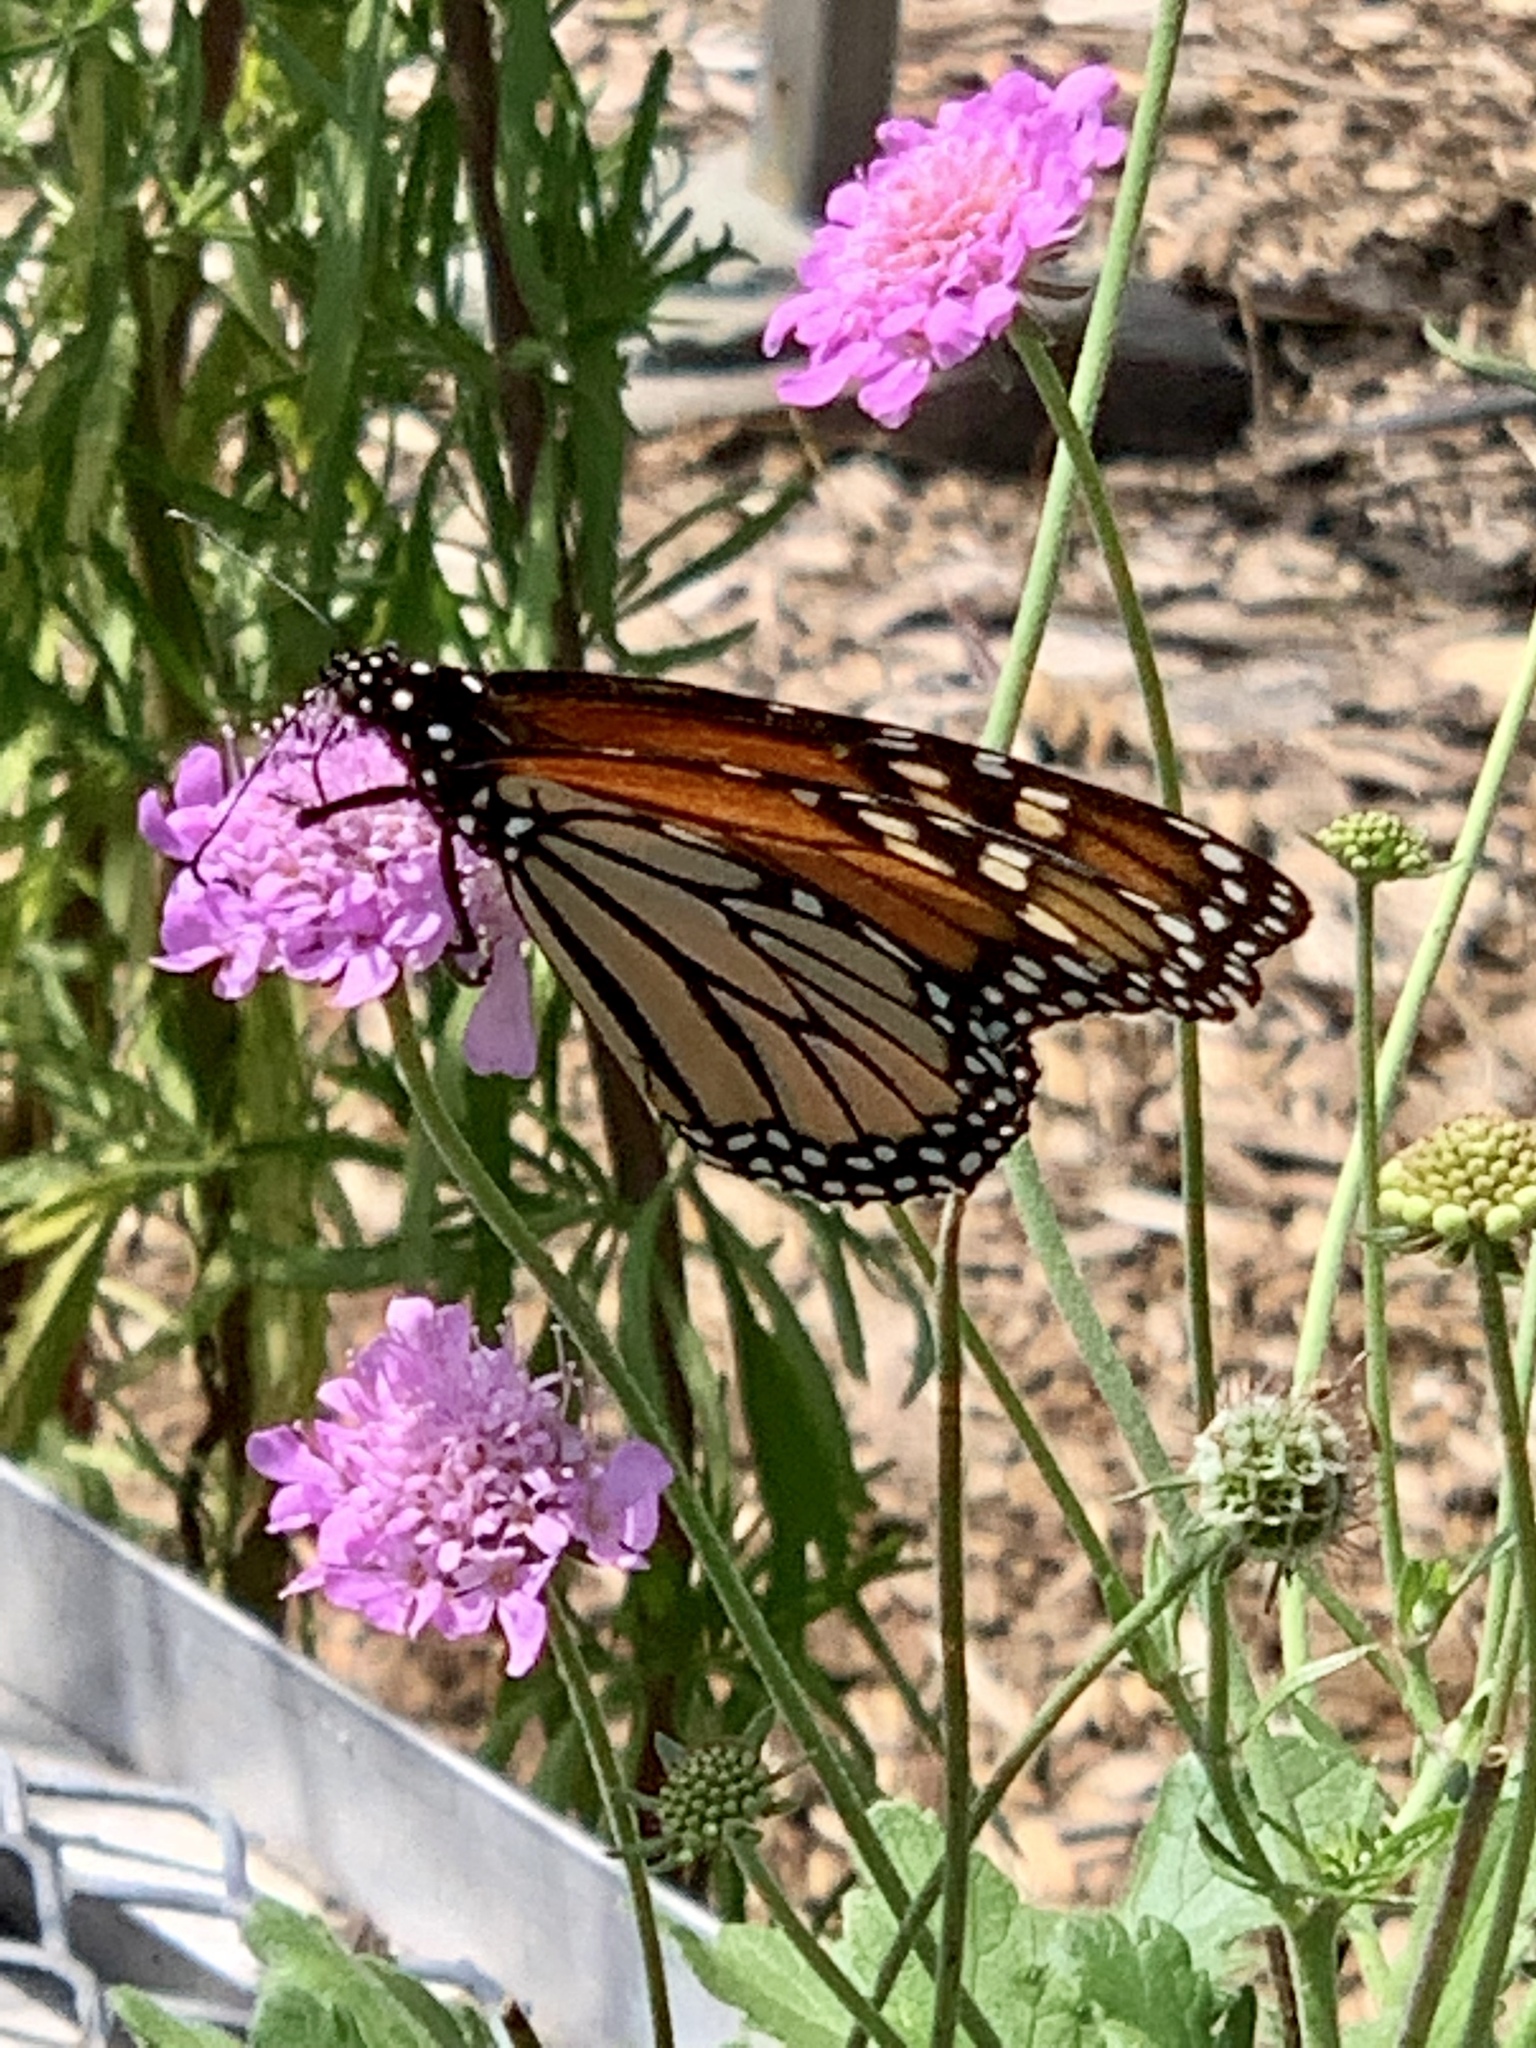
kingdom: Animalia
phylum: Arthropoda
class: Insecta
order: Lepidoptera
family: Nymphalidae
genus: Danaus
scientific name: Danaus plexippus
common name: Monarch
